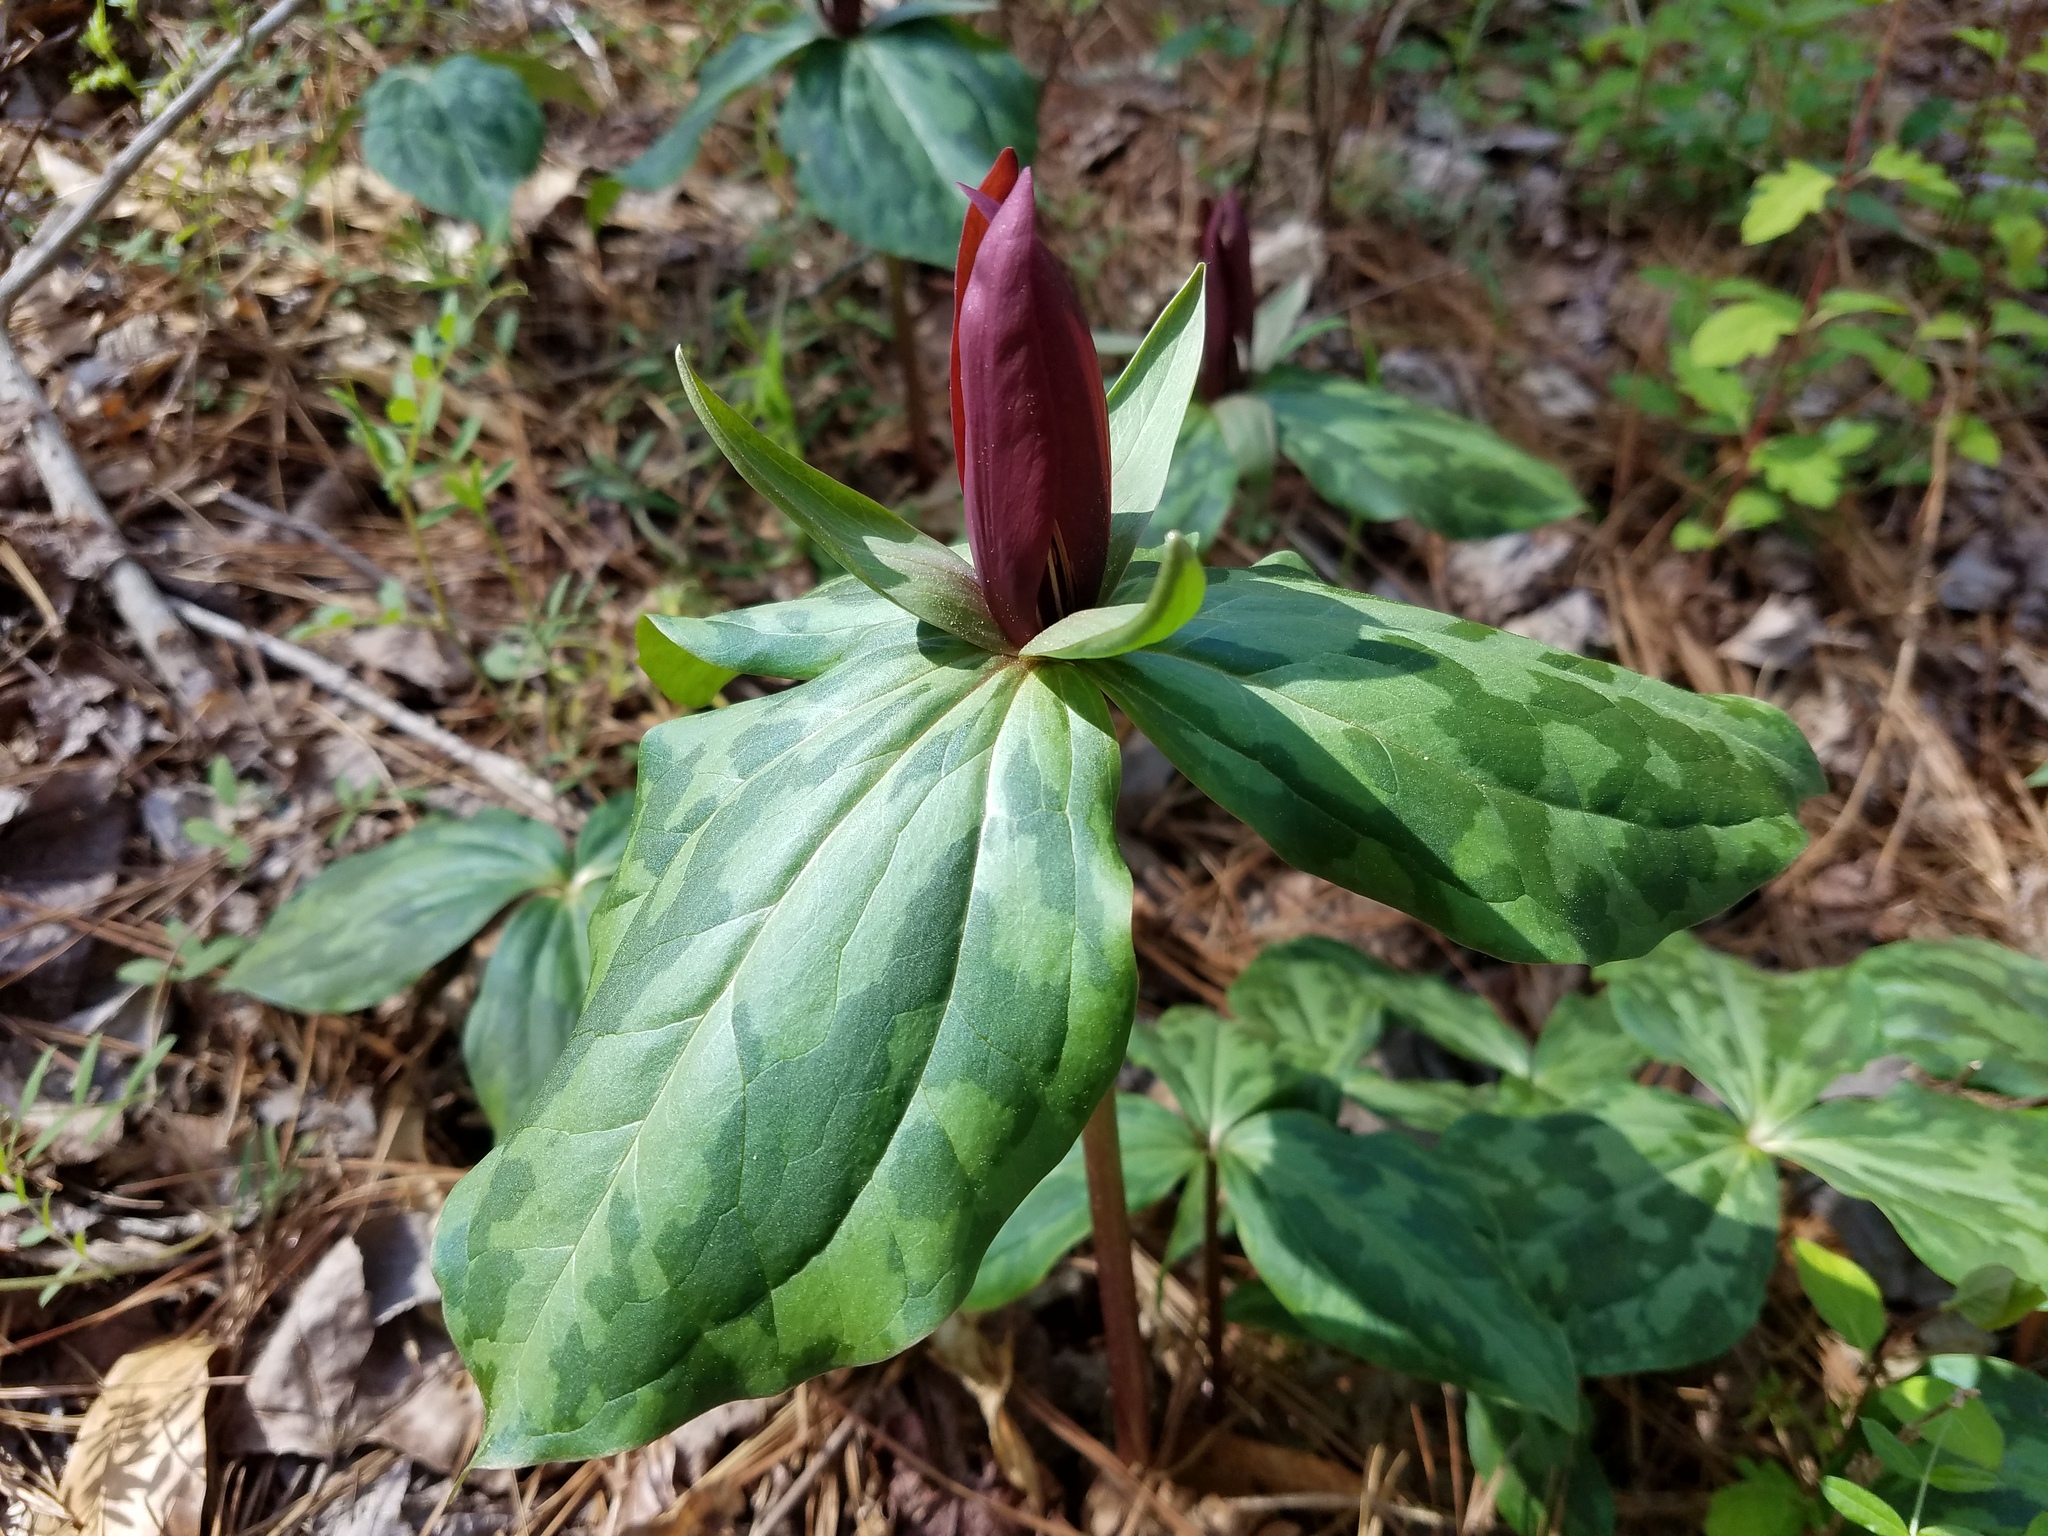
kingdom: Plantae
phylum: Tracheophyta
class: Liliopsida
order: Liliales
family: Melanthiaceae
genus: Trillium
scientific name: Trillium cuneatum
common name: Cuneate trillium
